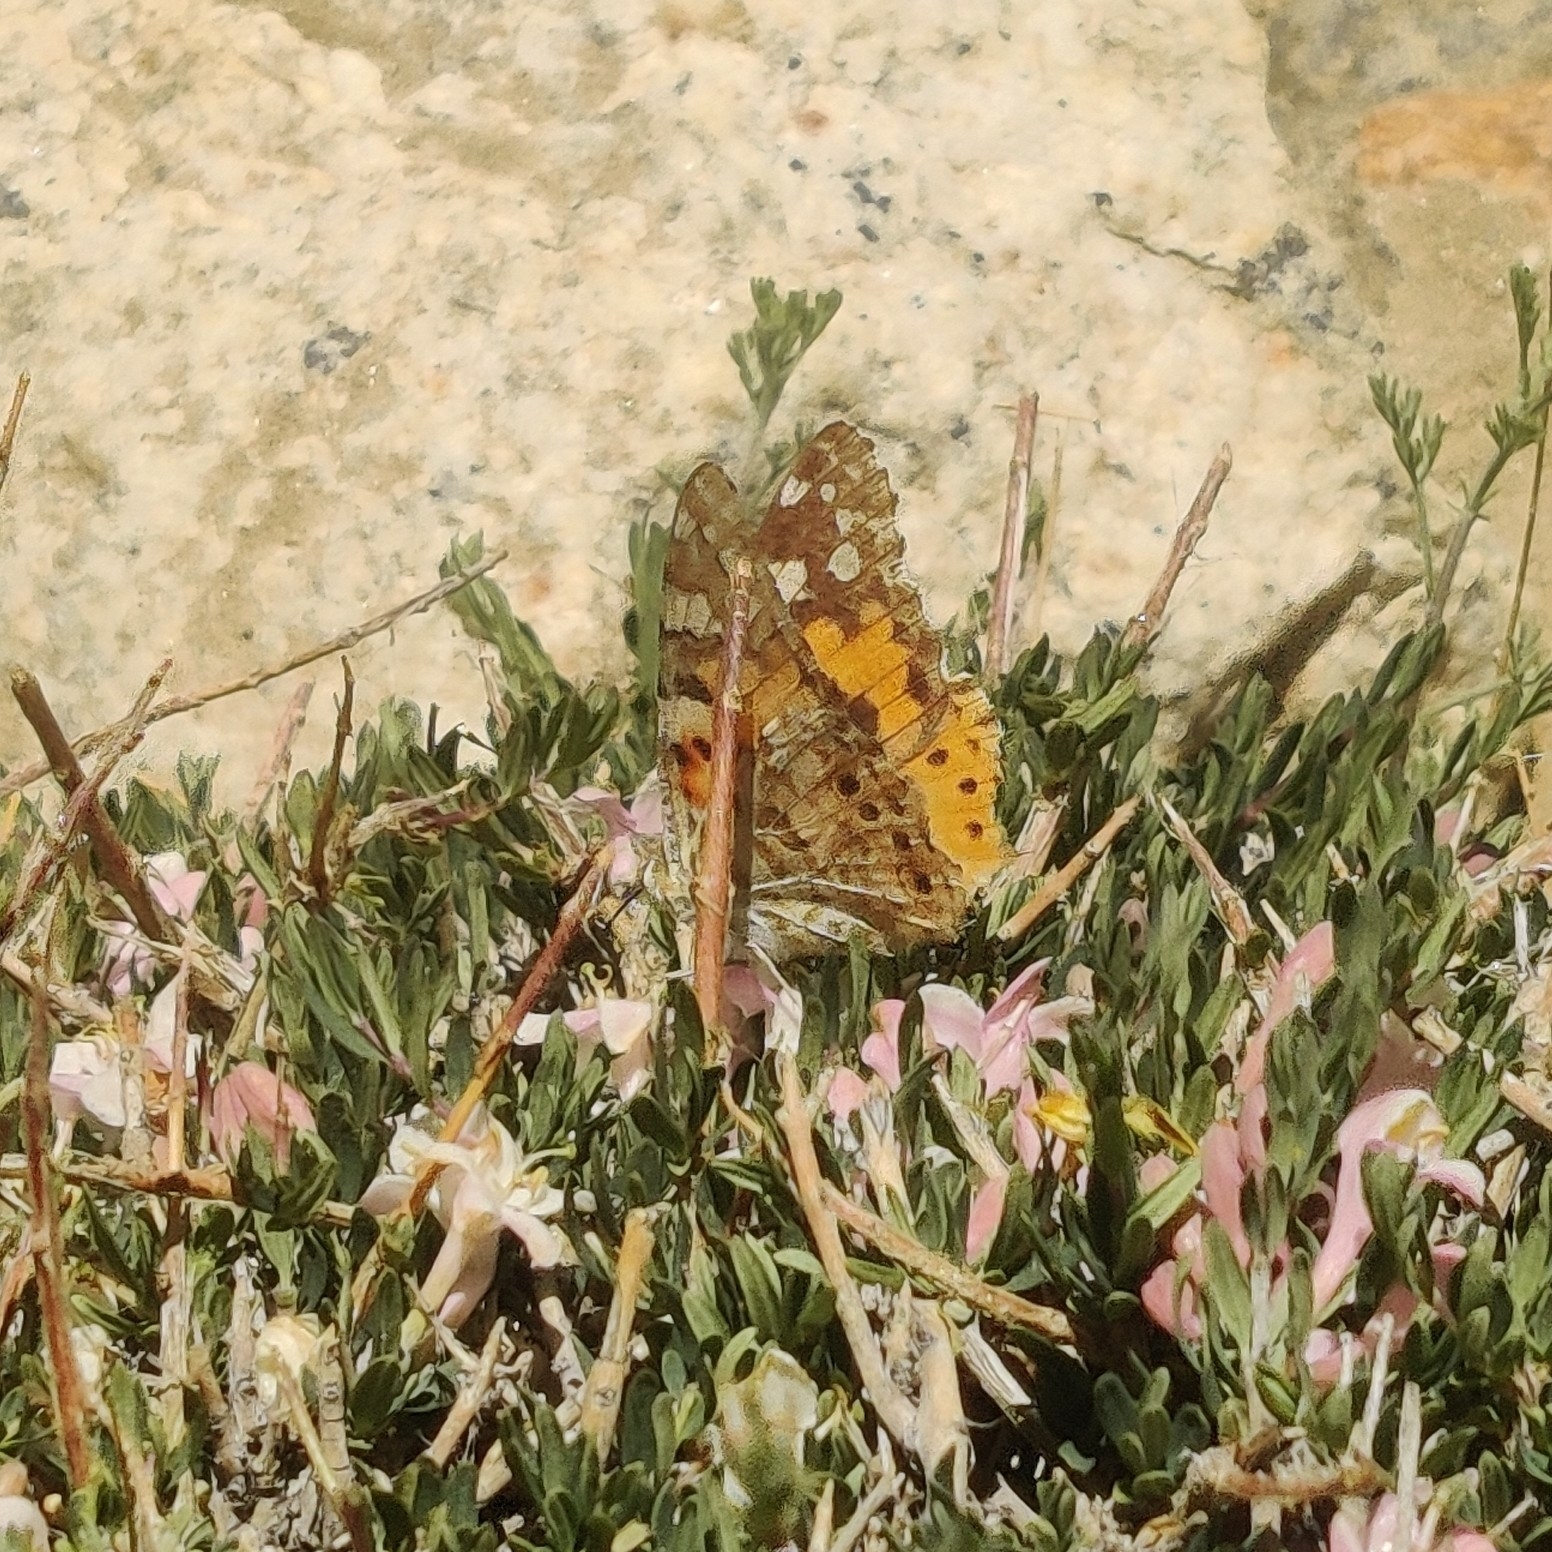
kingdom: Animalia
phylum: Arthropoda
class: Insecta
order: Lepidoptera
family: Nymphalidae
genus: Vanessa
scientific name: Vanessa cardui
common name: Painted lady
